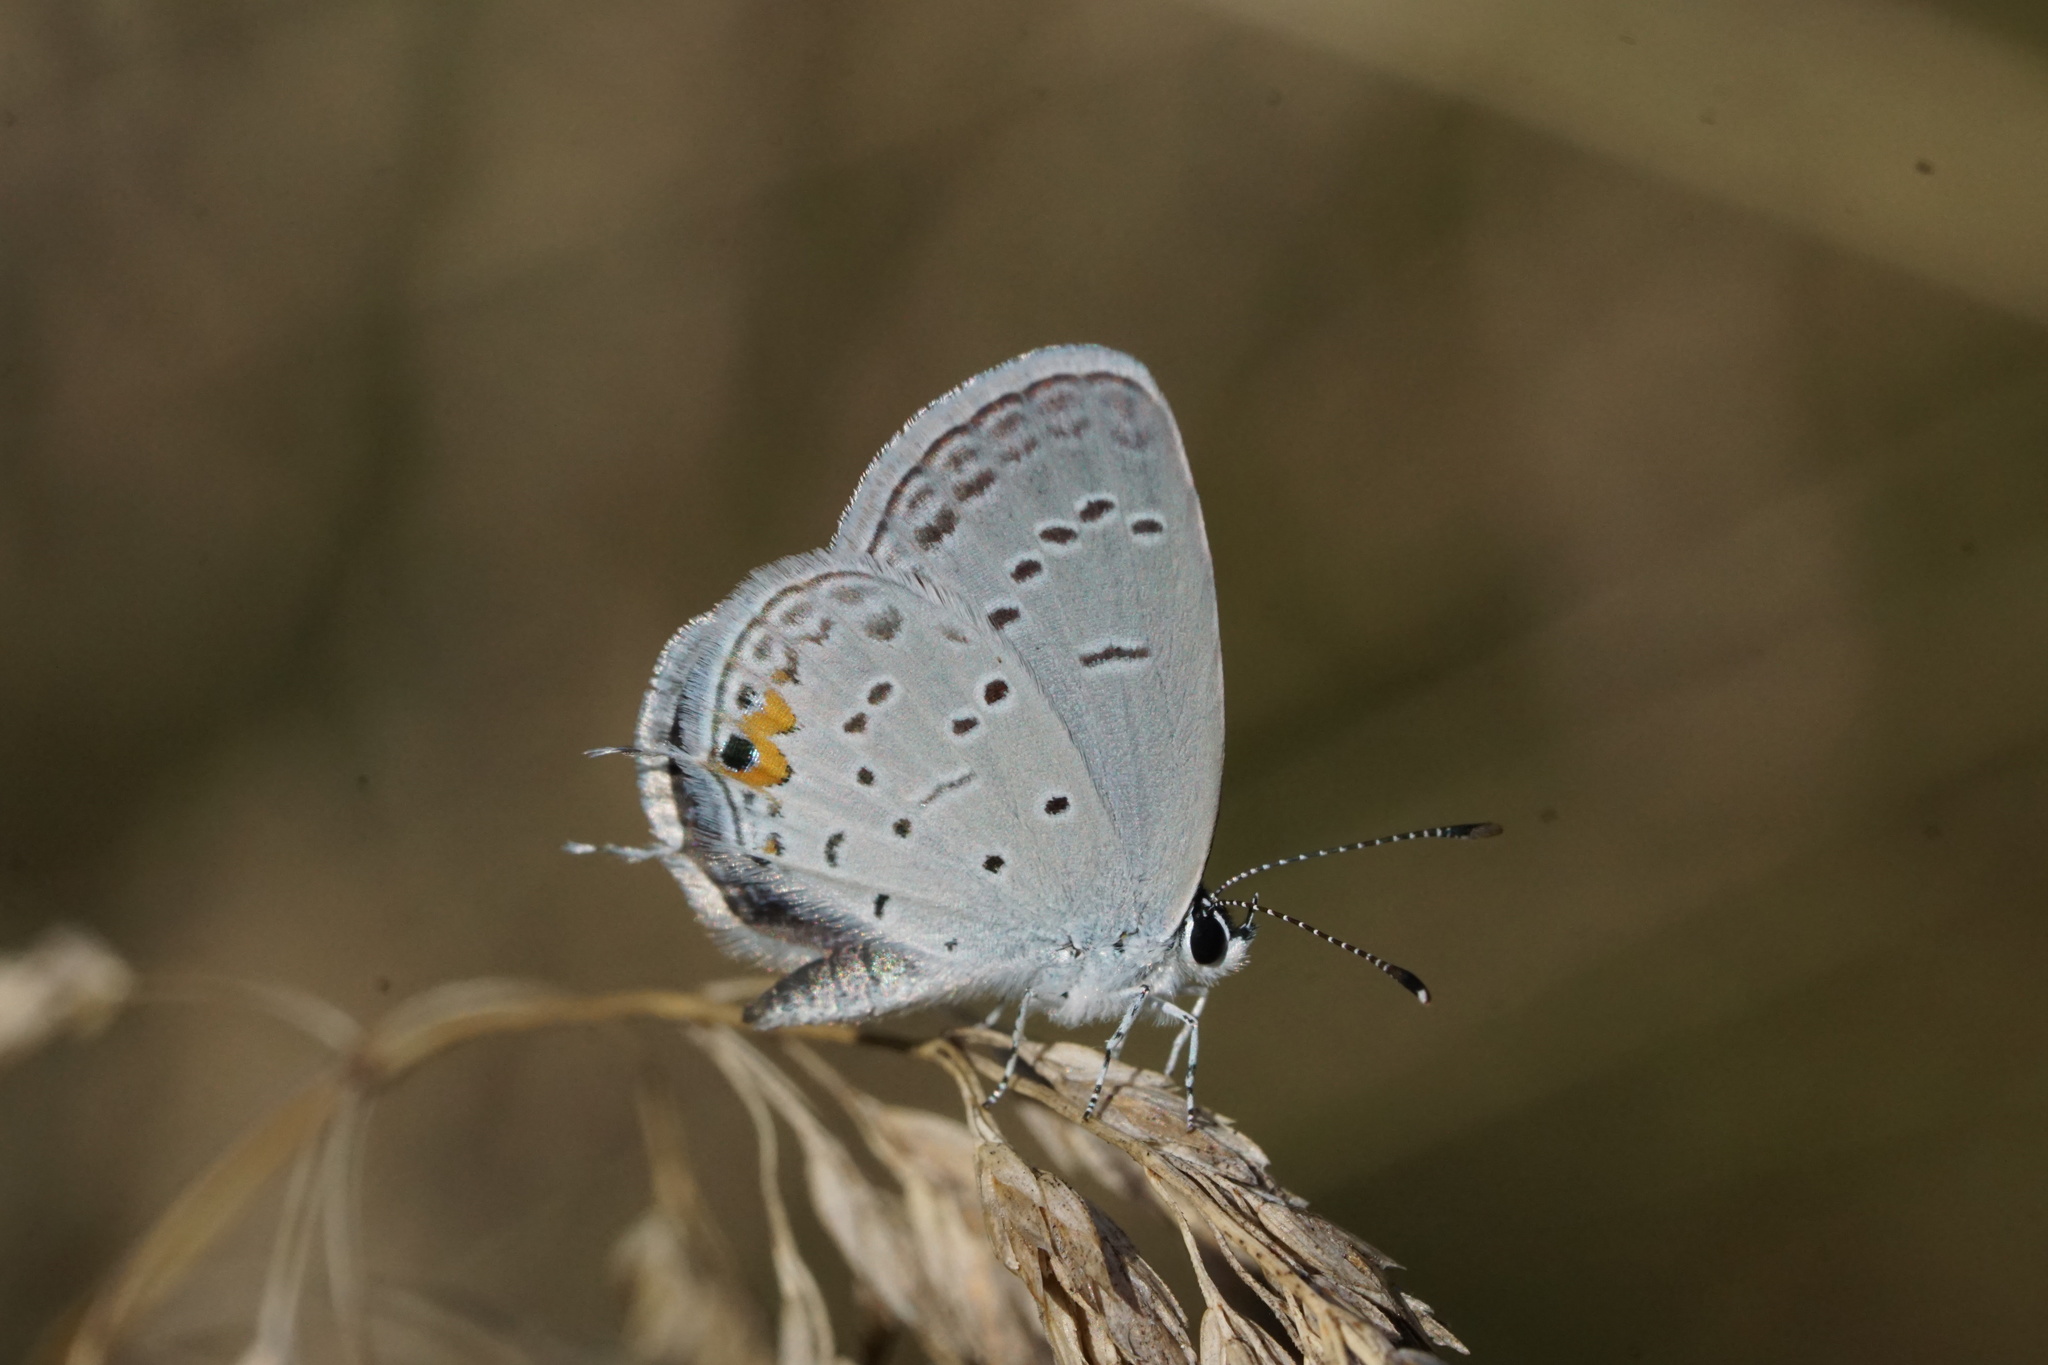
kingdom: Animalia
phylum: Arthropoda
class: Insecta
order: Lepidoptera
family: Lycaenidae
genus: Elkalyce
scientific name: Elkalyce comyntas
